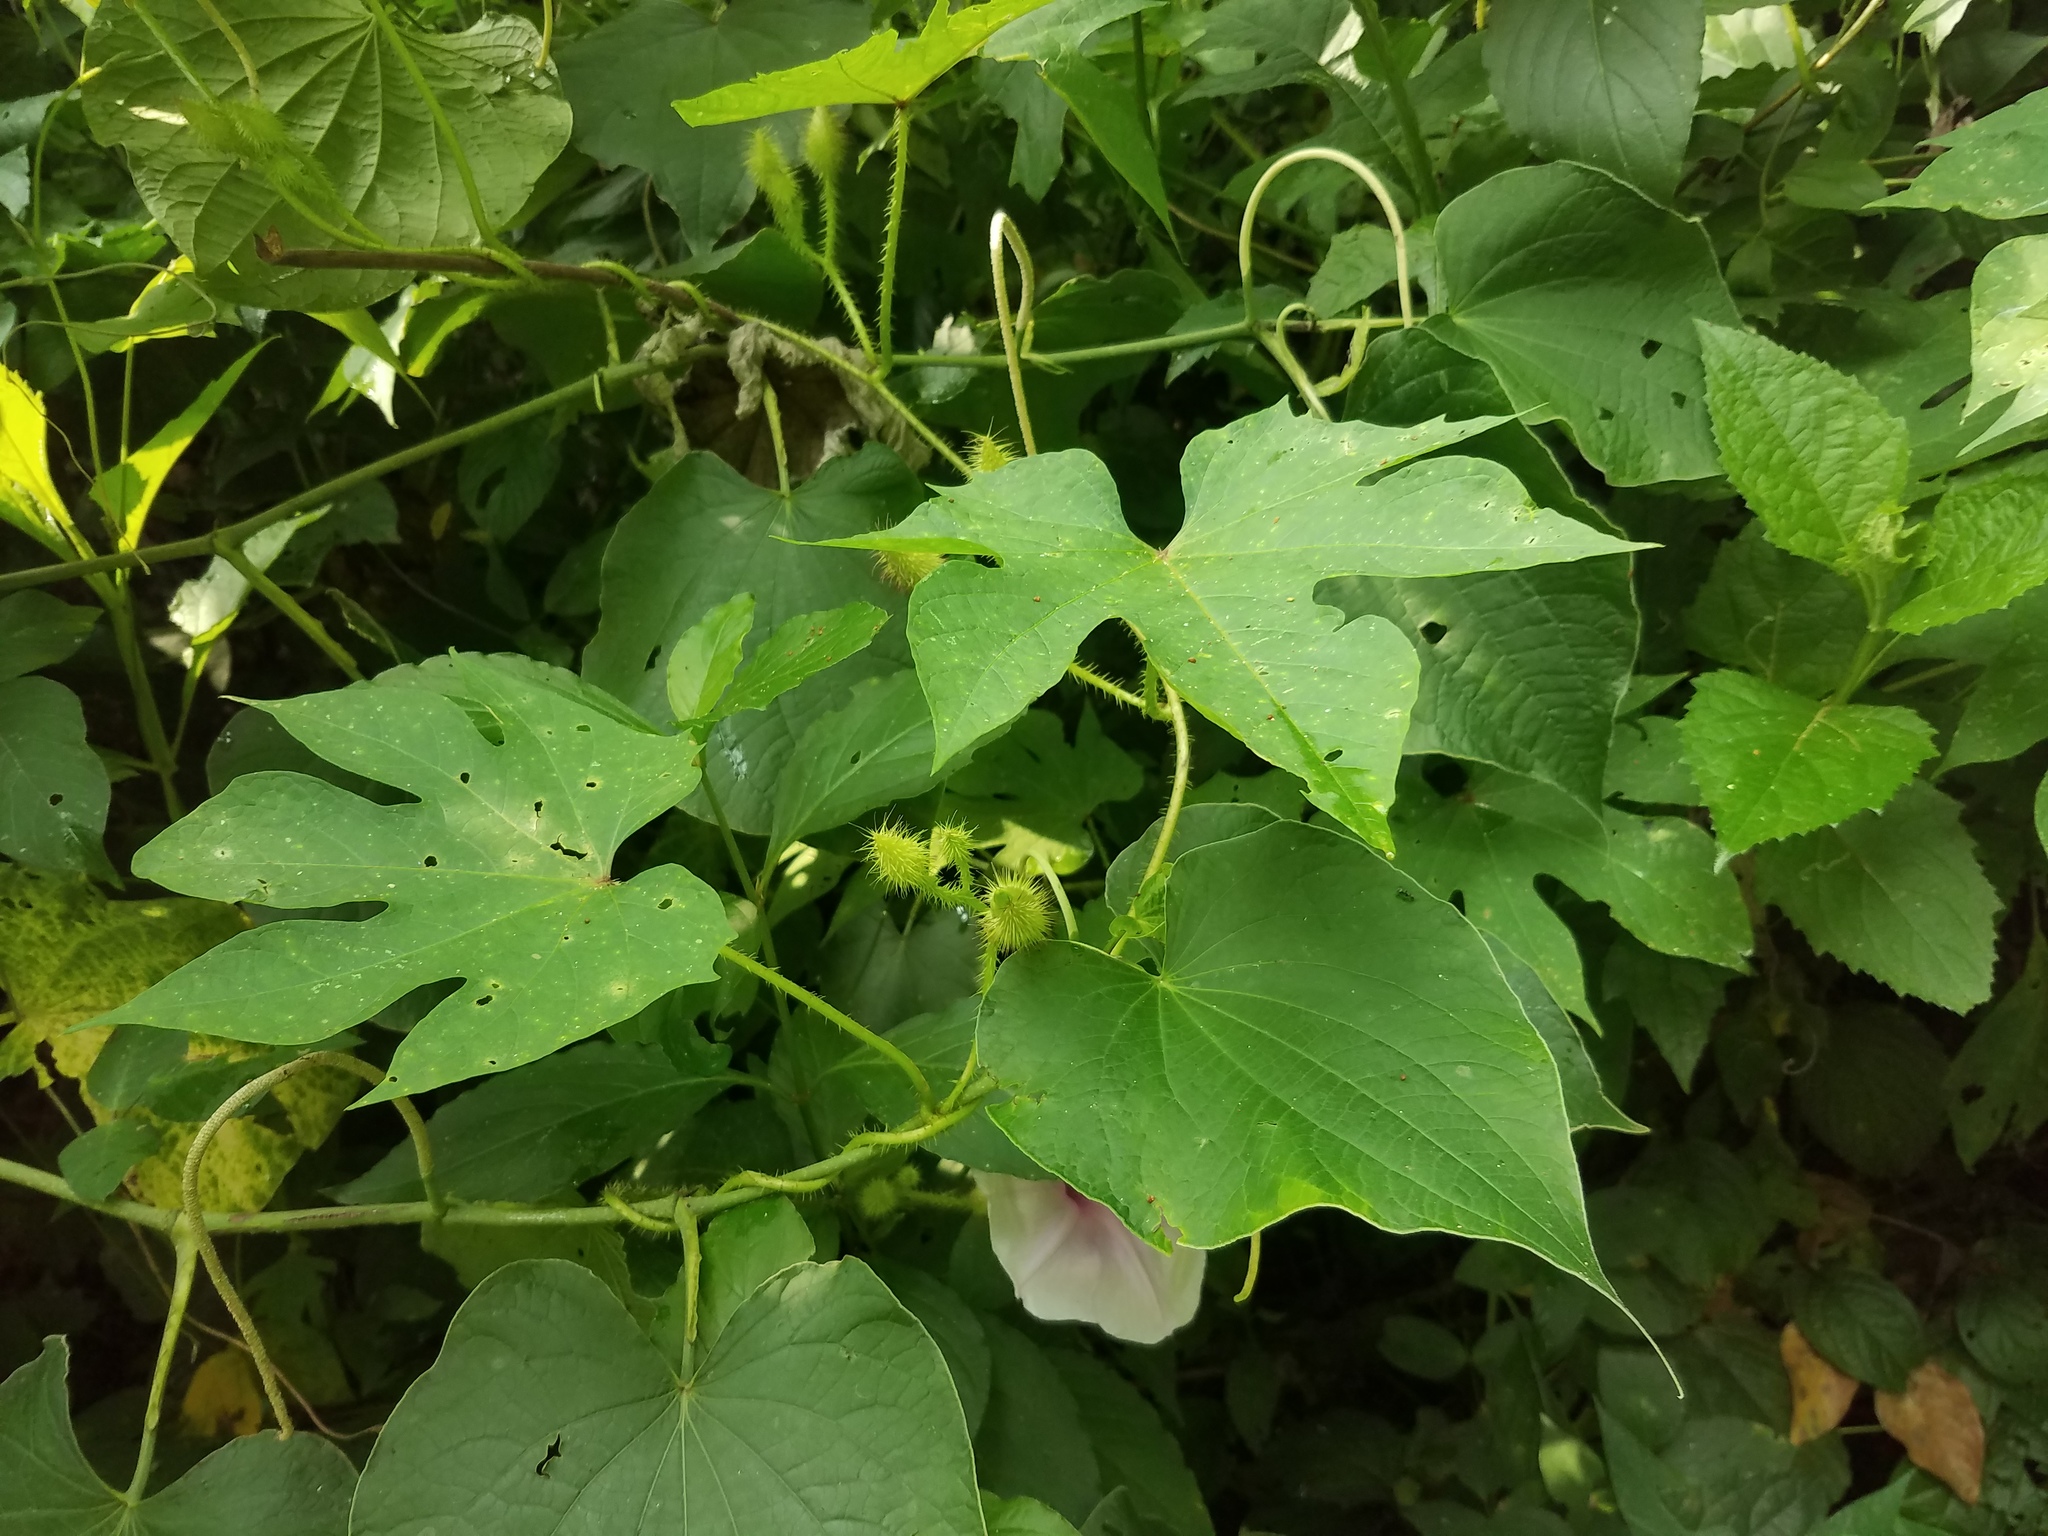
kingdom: Plantae
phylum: Tracheophyta
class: Magnoliopsida
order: Solanales
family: Convolvulaceae
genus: Ipomoea
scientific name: Ipomoea setosa
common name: Brazilian morning-glory
